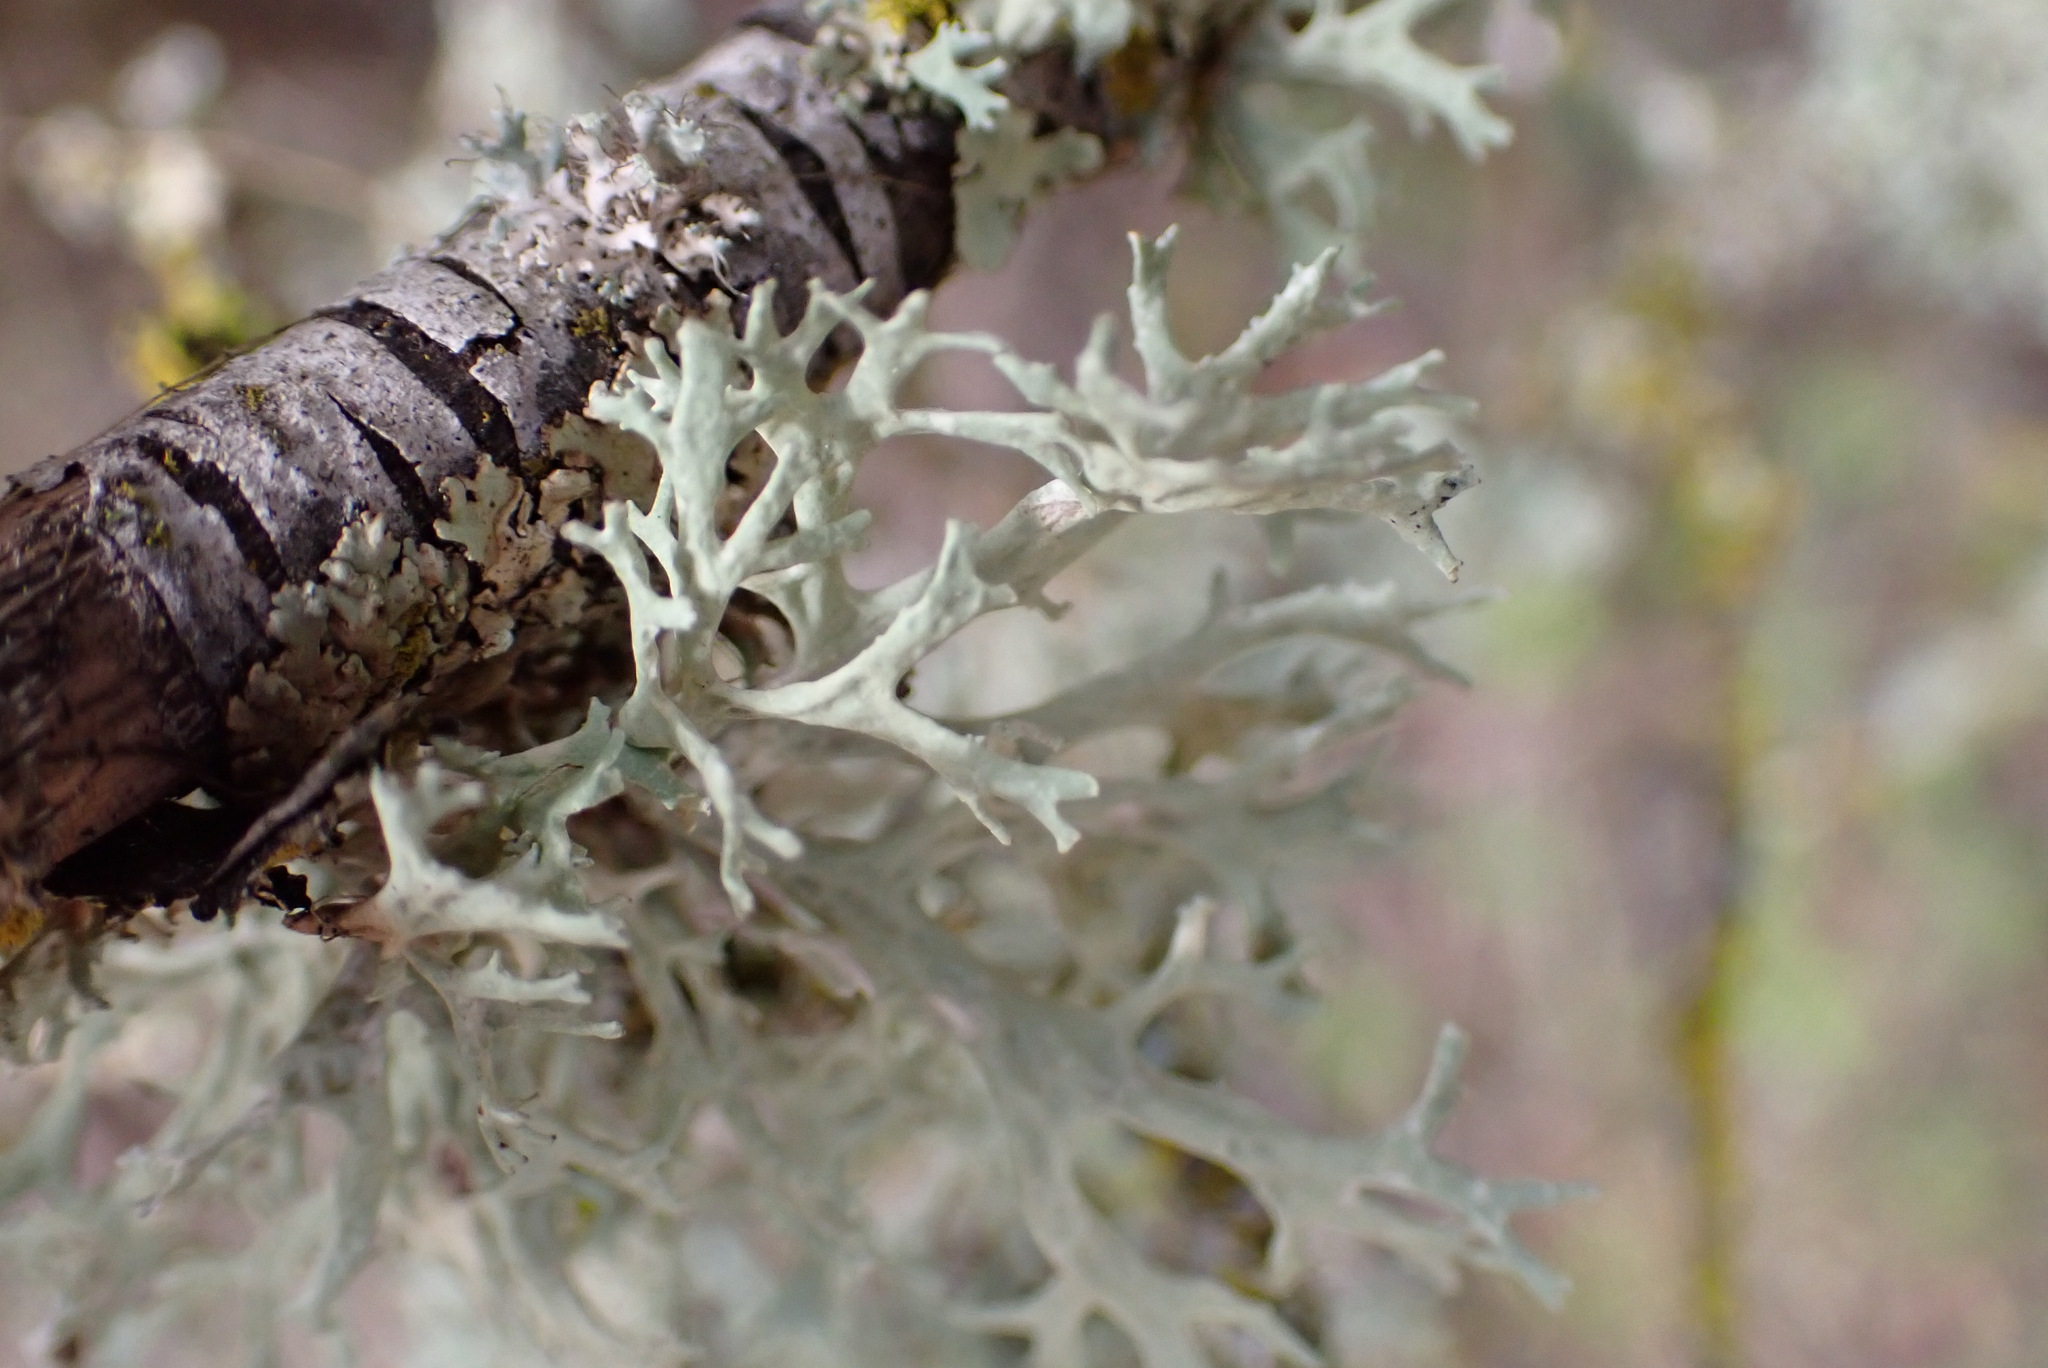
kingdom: Fungi
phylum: Ascomycota
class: Lecanoromycetes
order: Lecanorales
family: Parmeliaceae
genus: Evernia
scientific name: Evernia prunastri
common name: Oak moss
